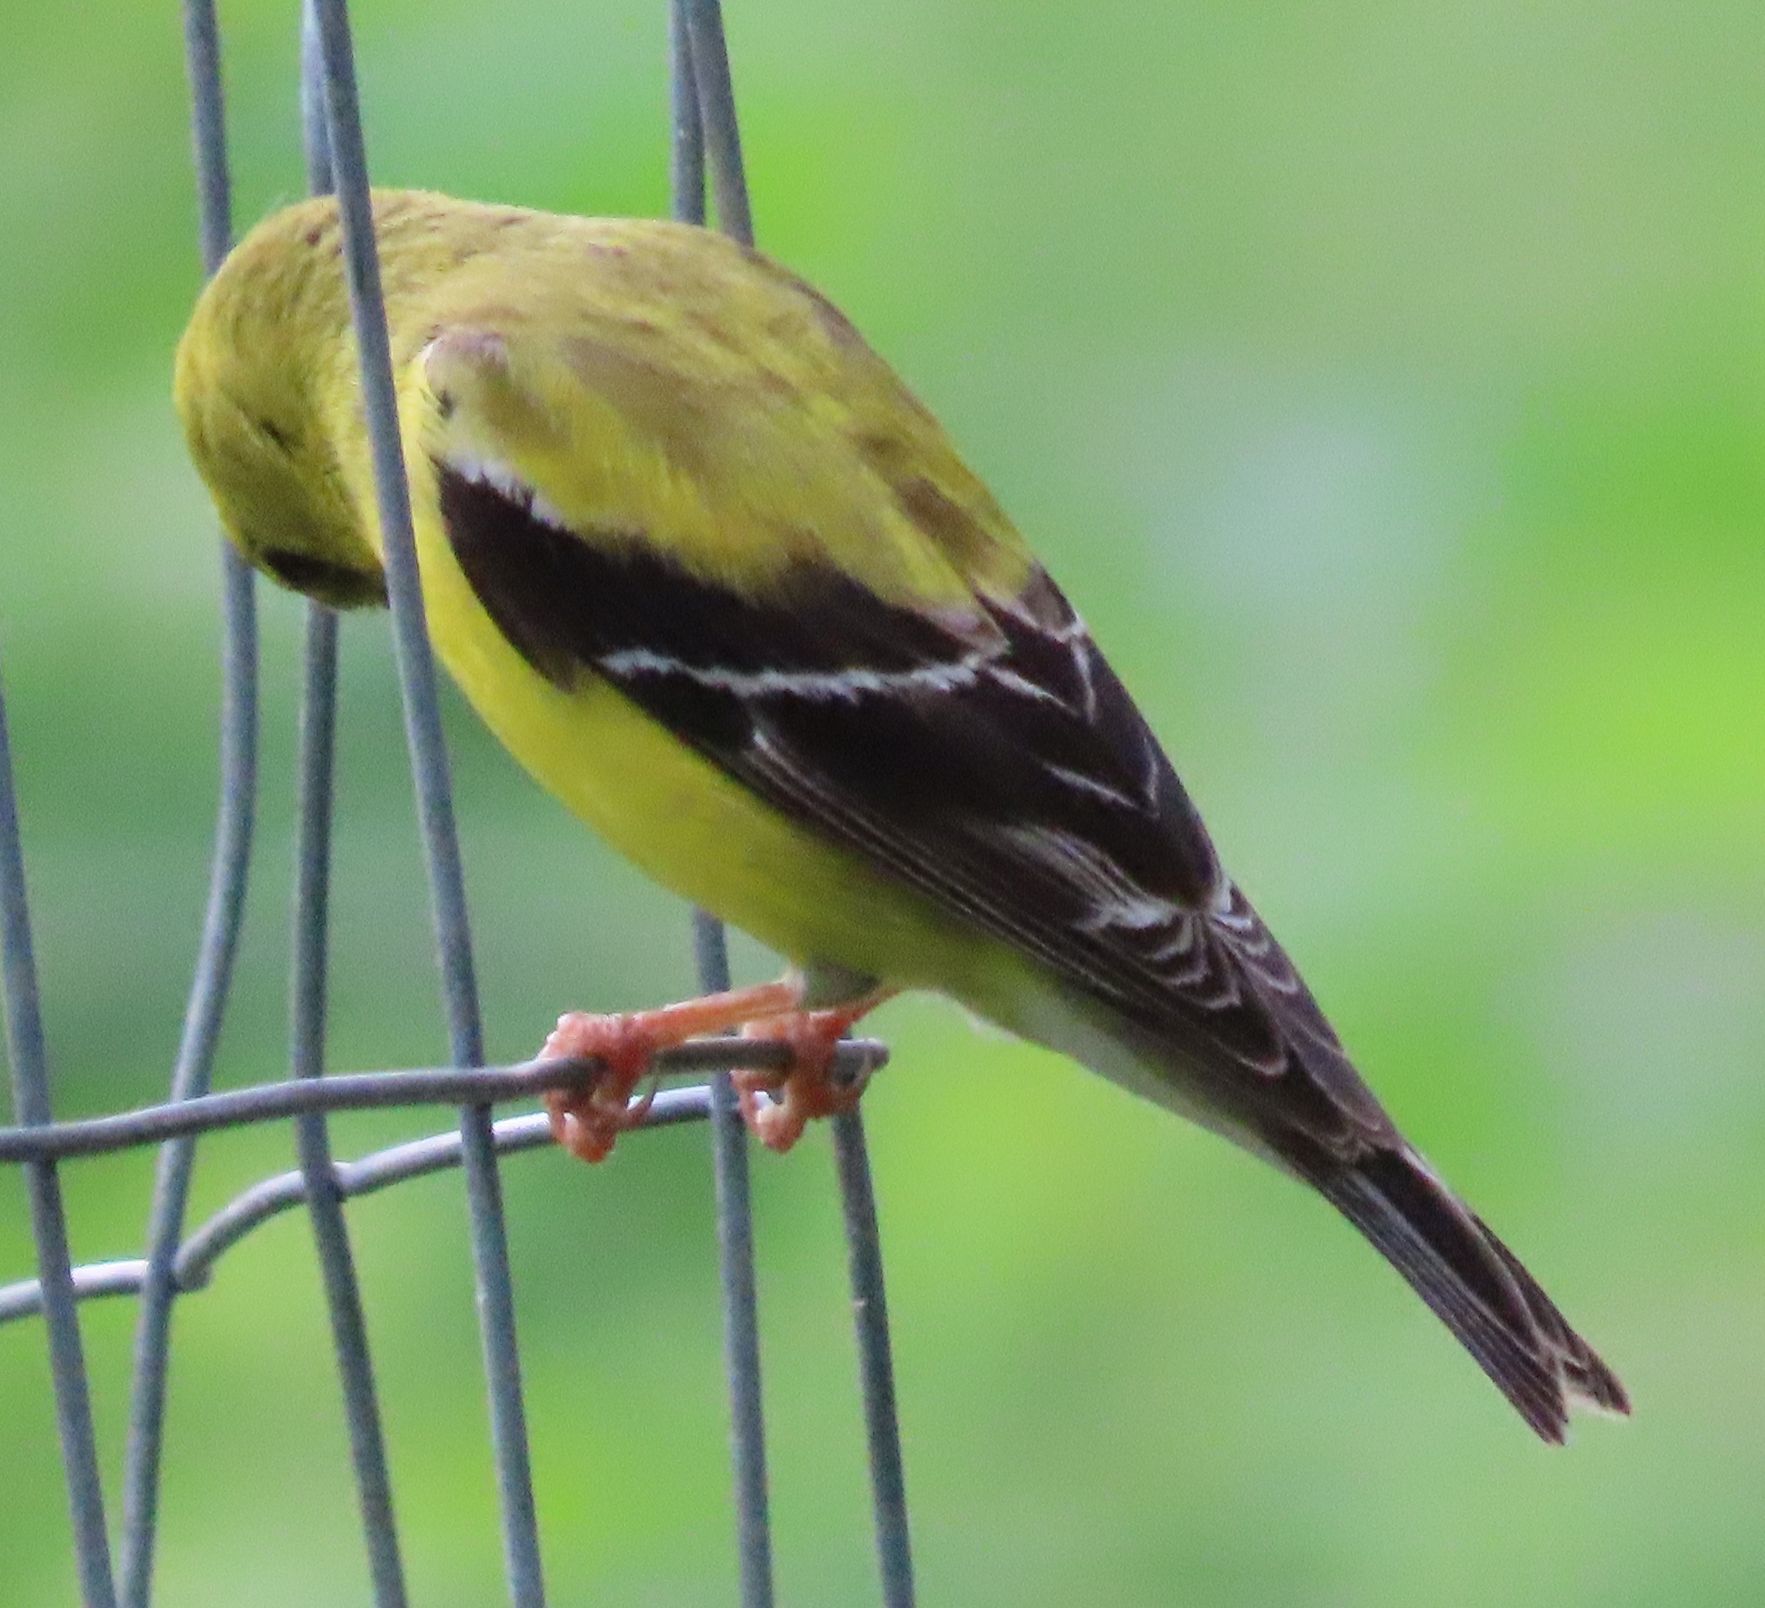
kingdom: Animalia
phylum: Chordata
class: Aves
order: Passeriformes
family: Fringillidae
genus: Spinus
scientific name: Spinus tristis
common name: American goldfinch
